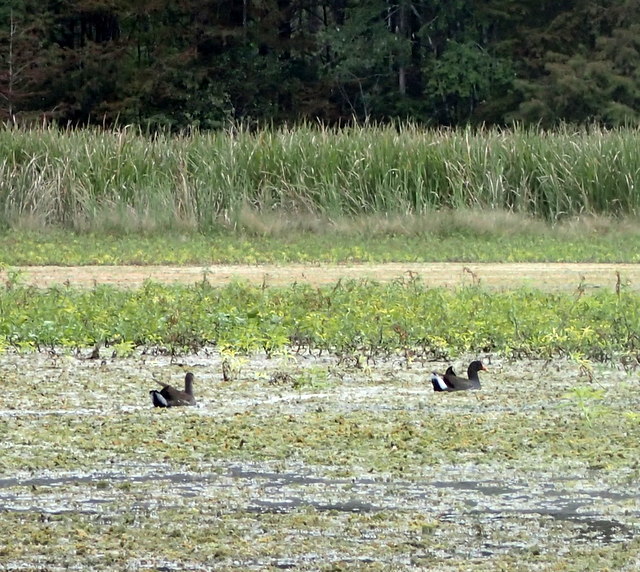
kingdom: Animalia
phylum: Chordata
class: Aves
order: Gruiformes
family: Rallidae
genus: Gallinula
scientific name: Gallinula chloropus
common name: Common moorhen
